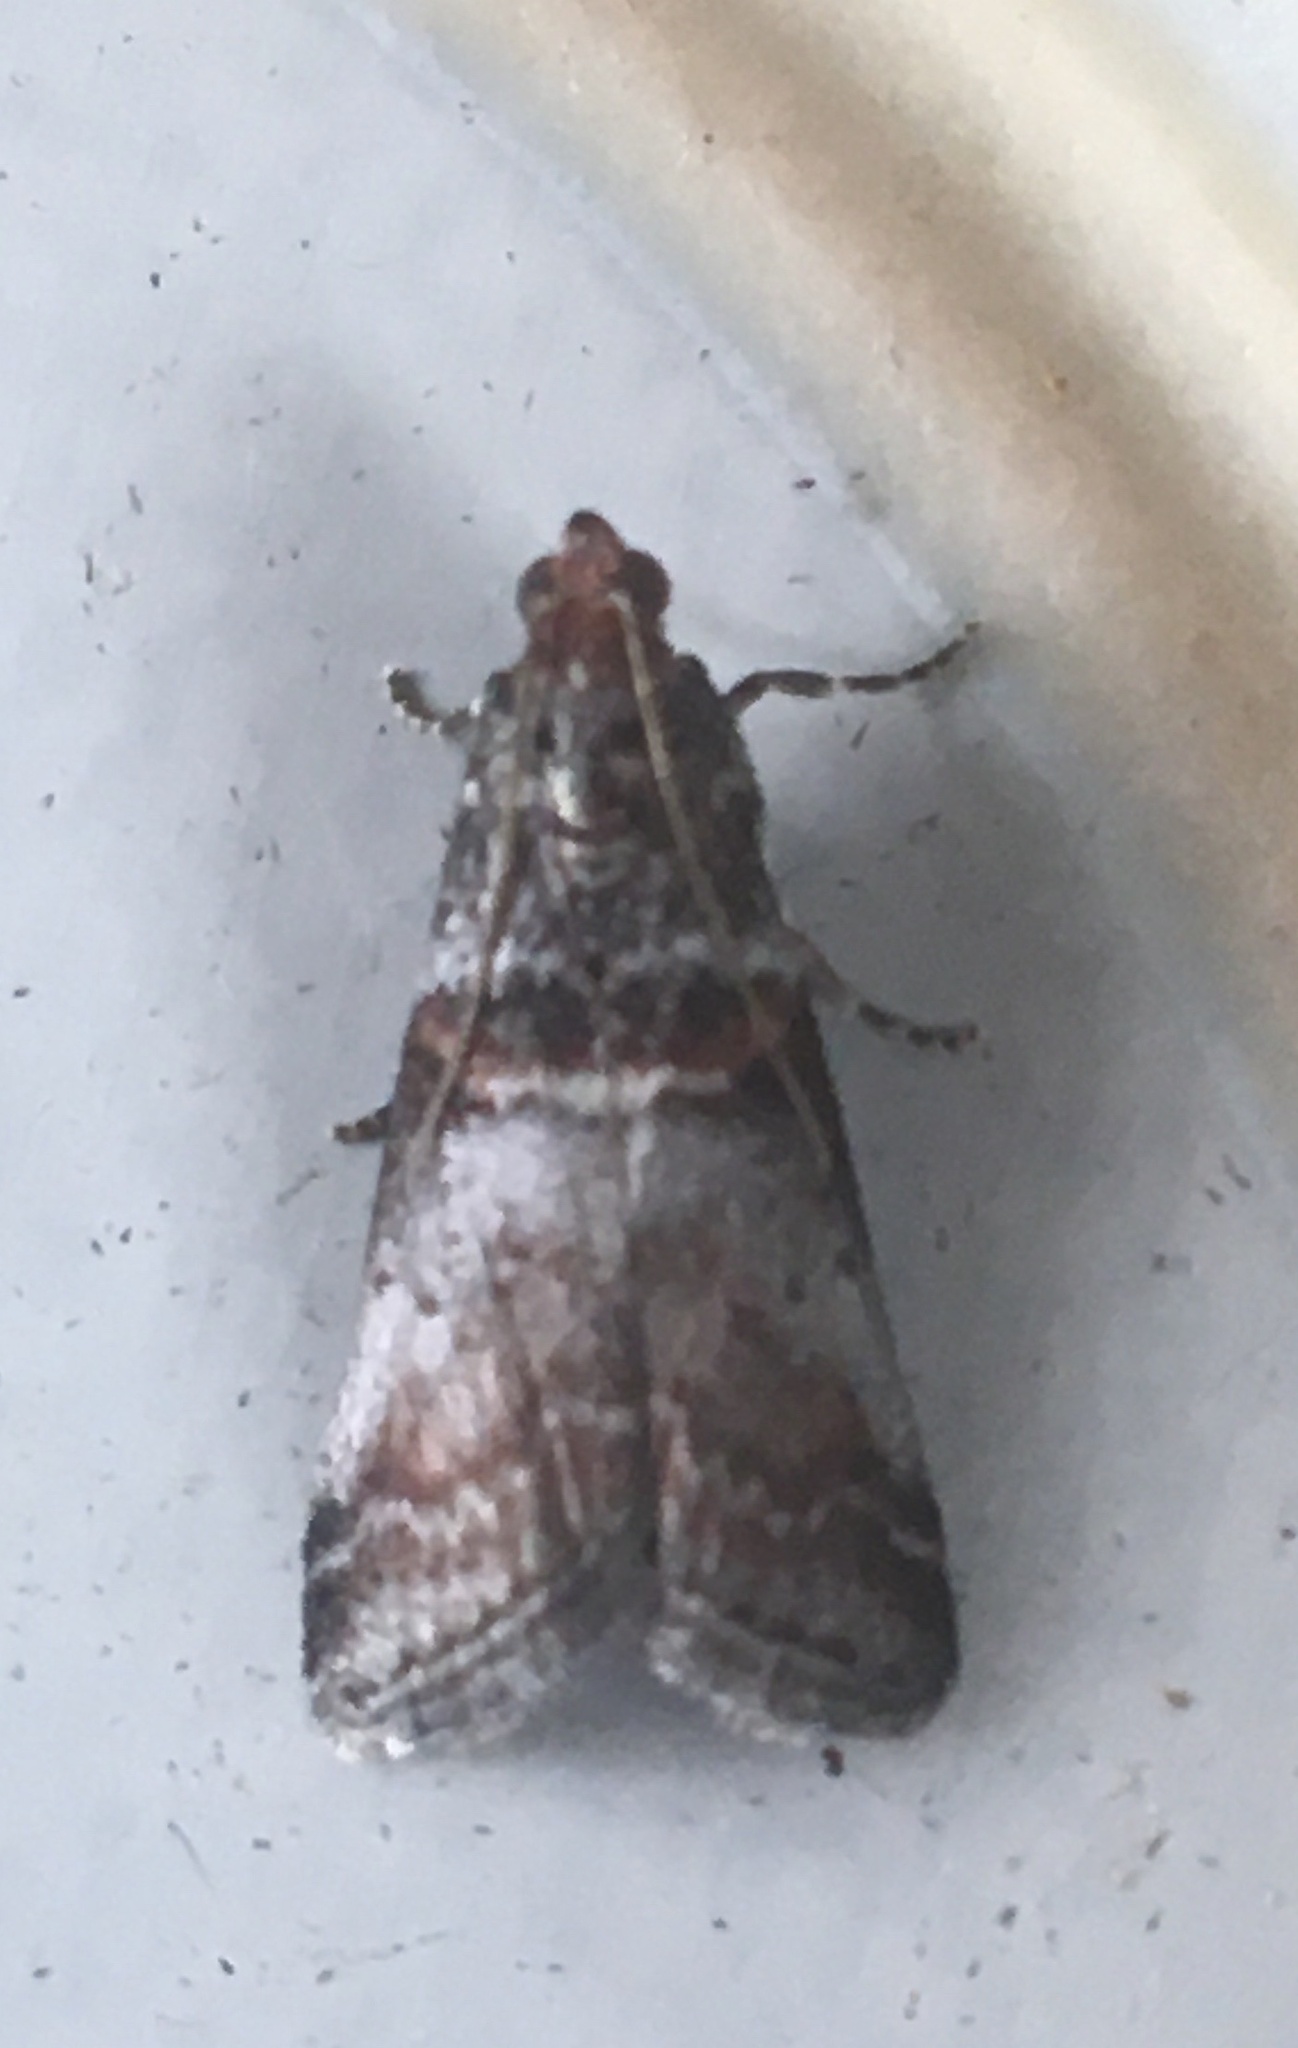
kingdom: Animalia
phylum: Arthropoda
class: Insecta
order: Lepidoptera
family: Pyralidae
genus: Acrobasis
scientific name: Acrobasis advenella
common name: Grey knot-horn
